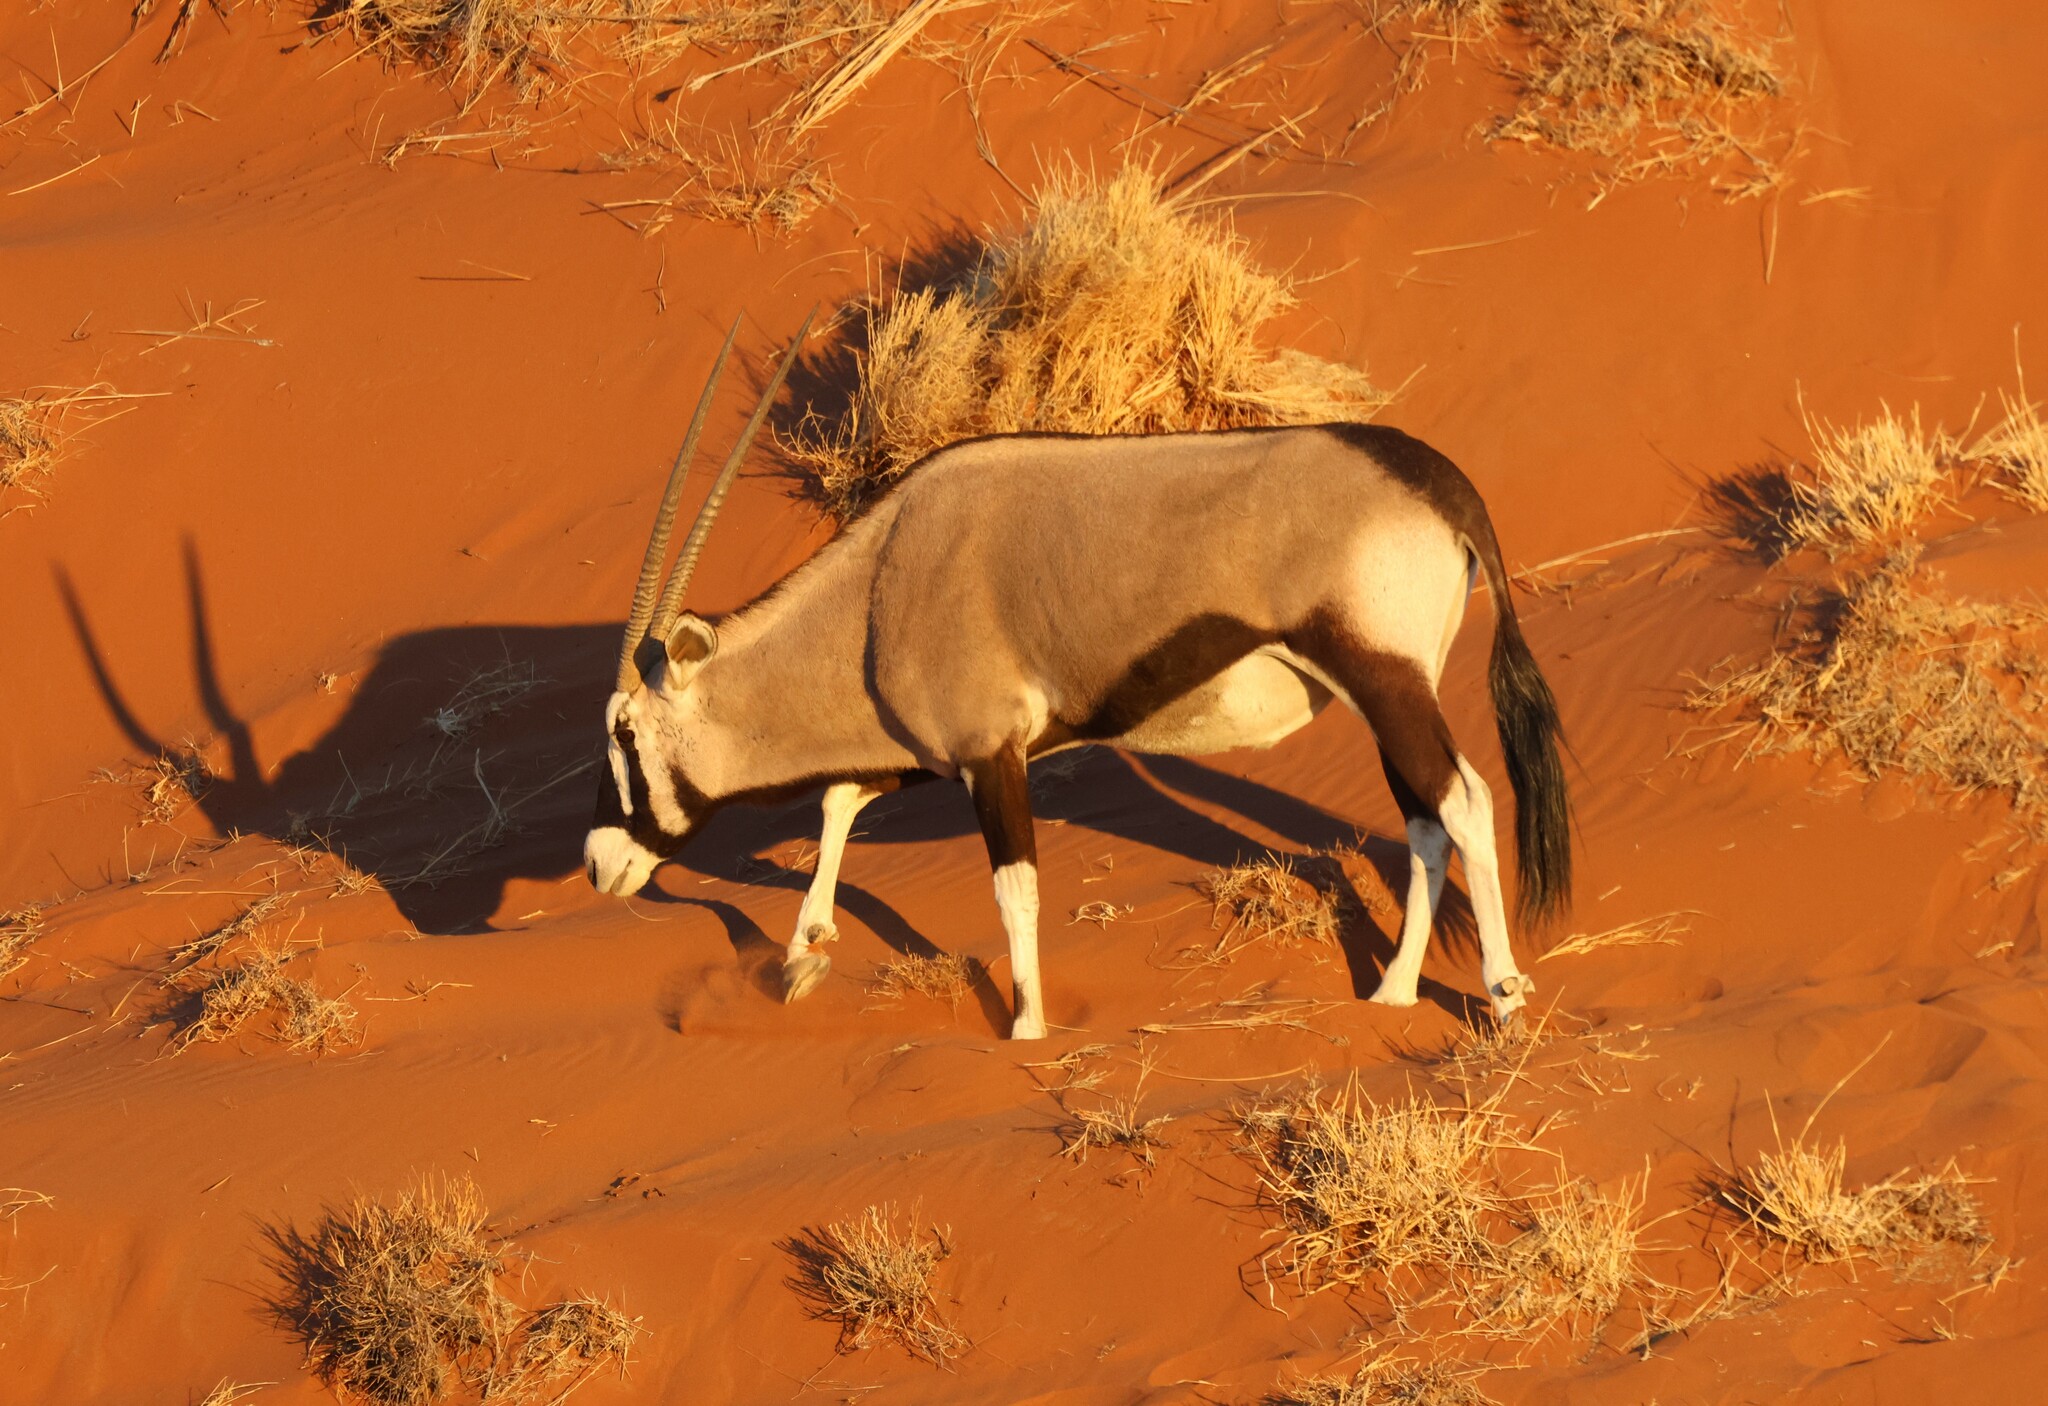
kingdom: Animalia
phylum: Chordata
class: Mammalia
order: Artiodactyla
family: Bovidae
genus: Oryx
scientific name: Oryx gazella
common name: Gemsbok
